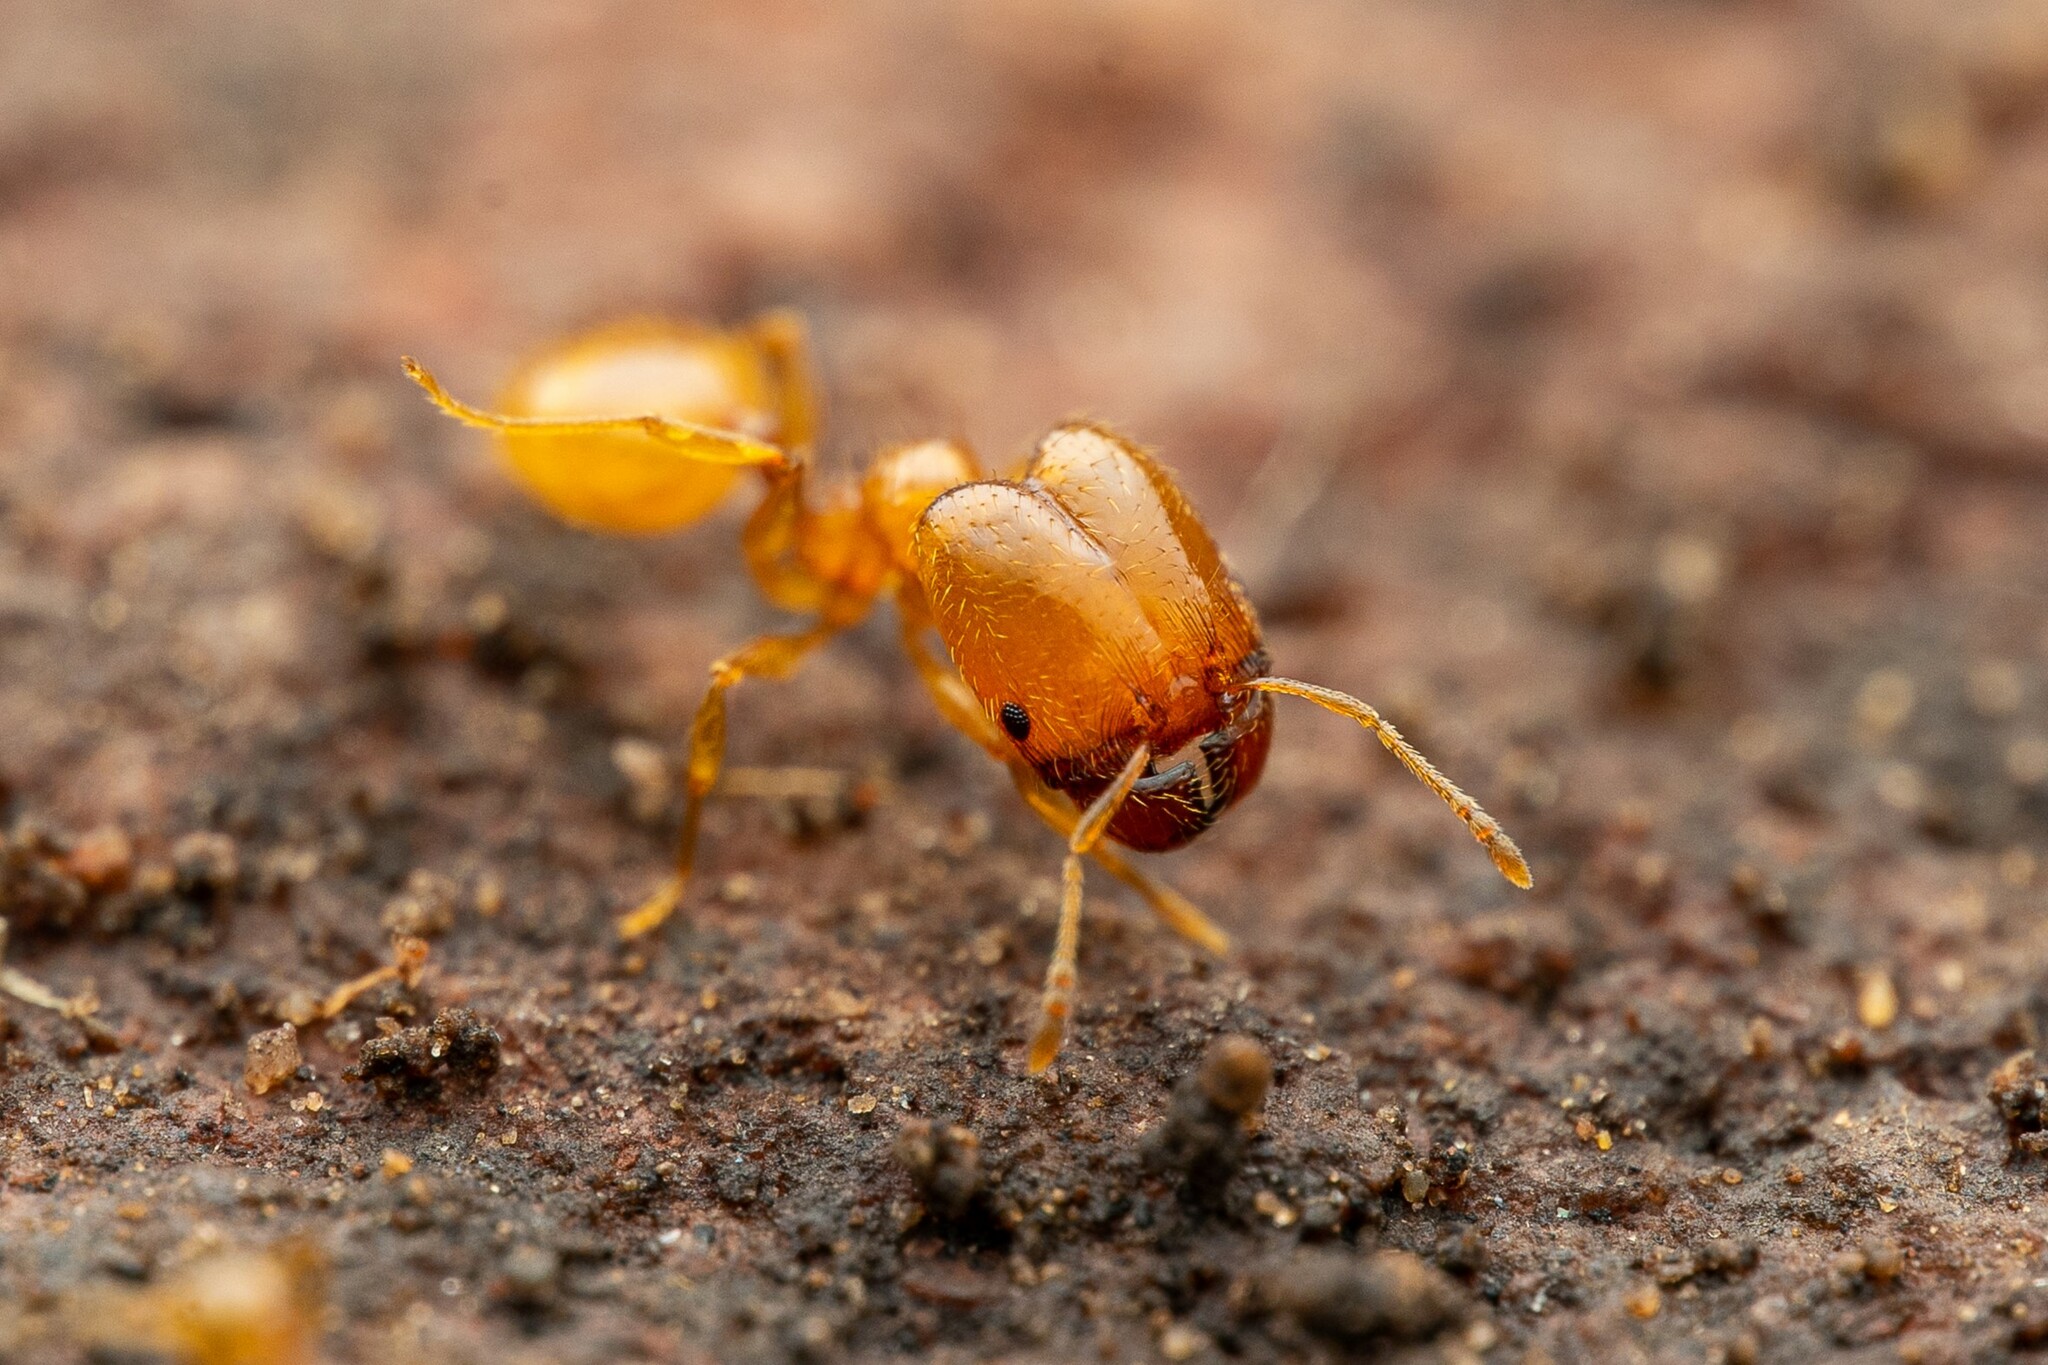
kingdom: Animalia
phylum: Arthropoda
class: Insecta
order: Hymenoptera
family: Formicidae
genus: Pheidole
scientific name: Pheidole cerebrosior
